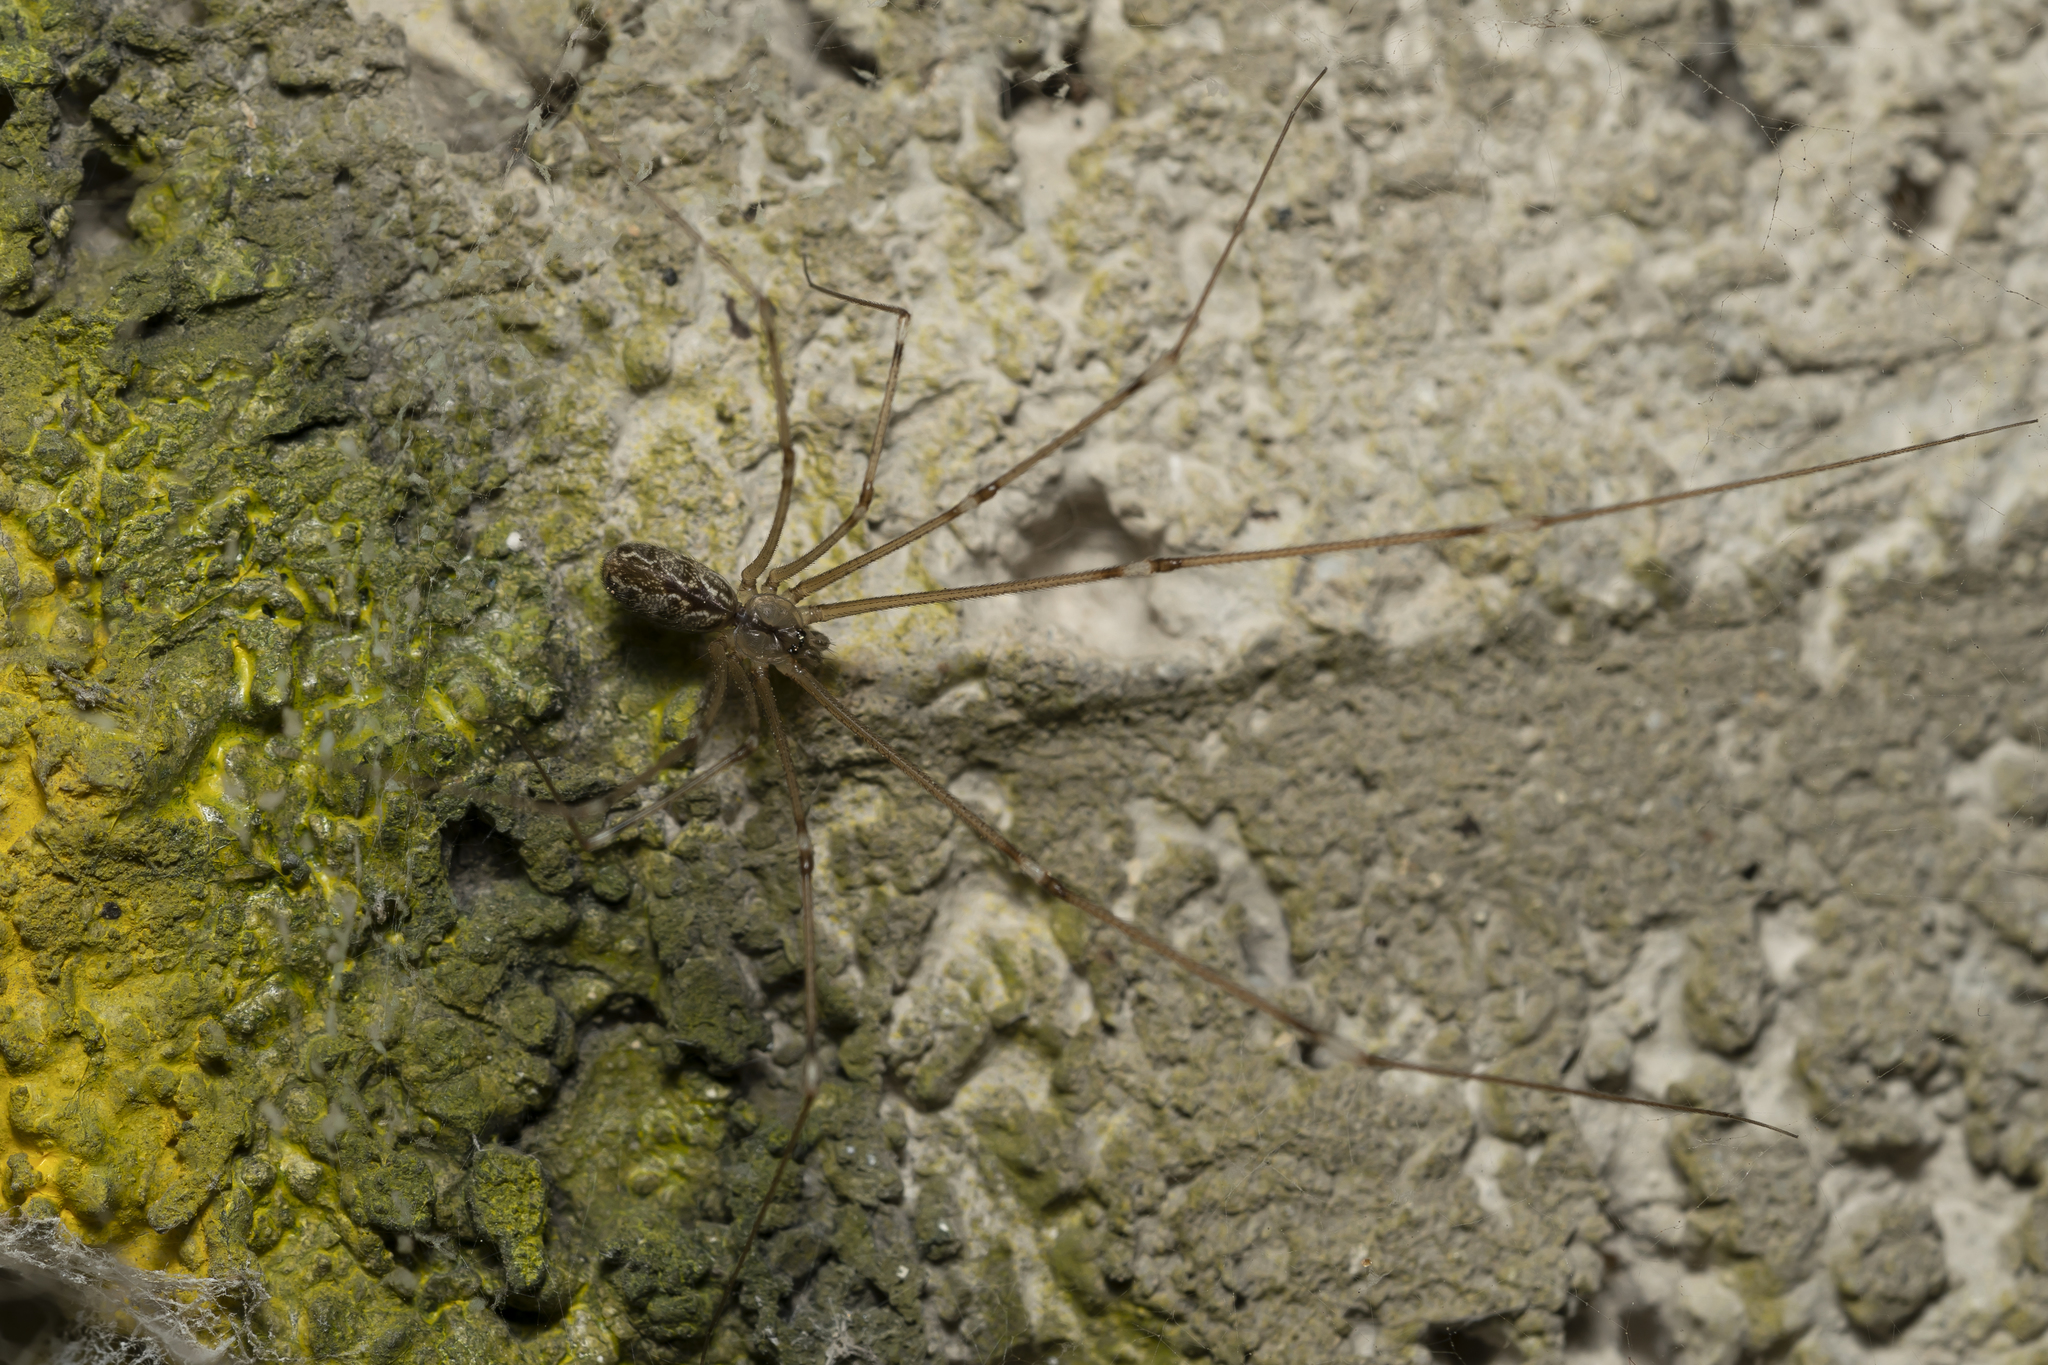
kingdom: Animalia
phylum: Arthropoda
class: Arachnida
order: Araneae
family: Pholcidae
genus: Holocnemus
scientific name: Holocnemus pluchei
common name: Marbled cellar spider
